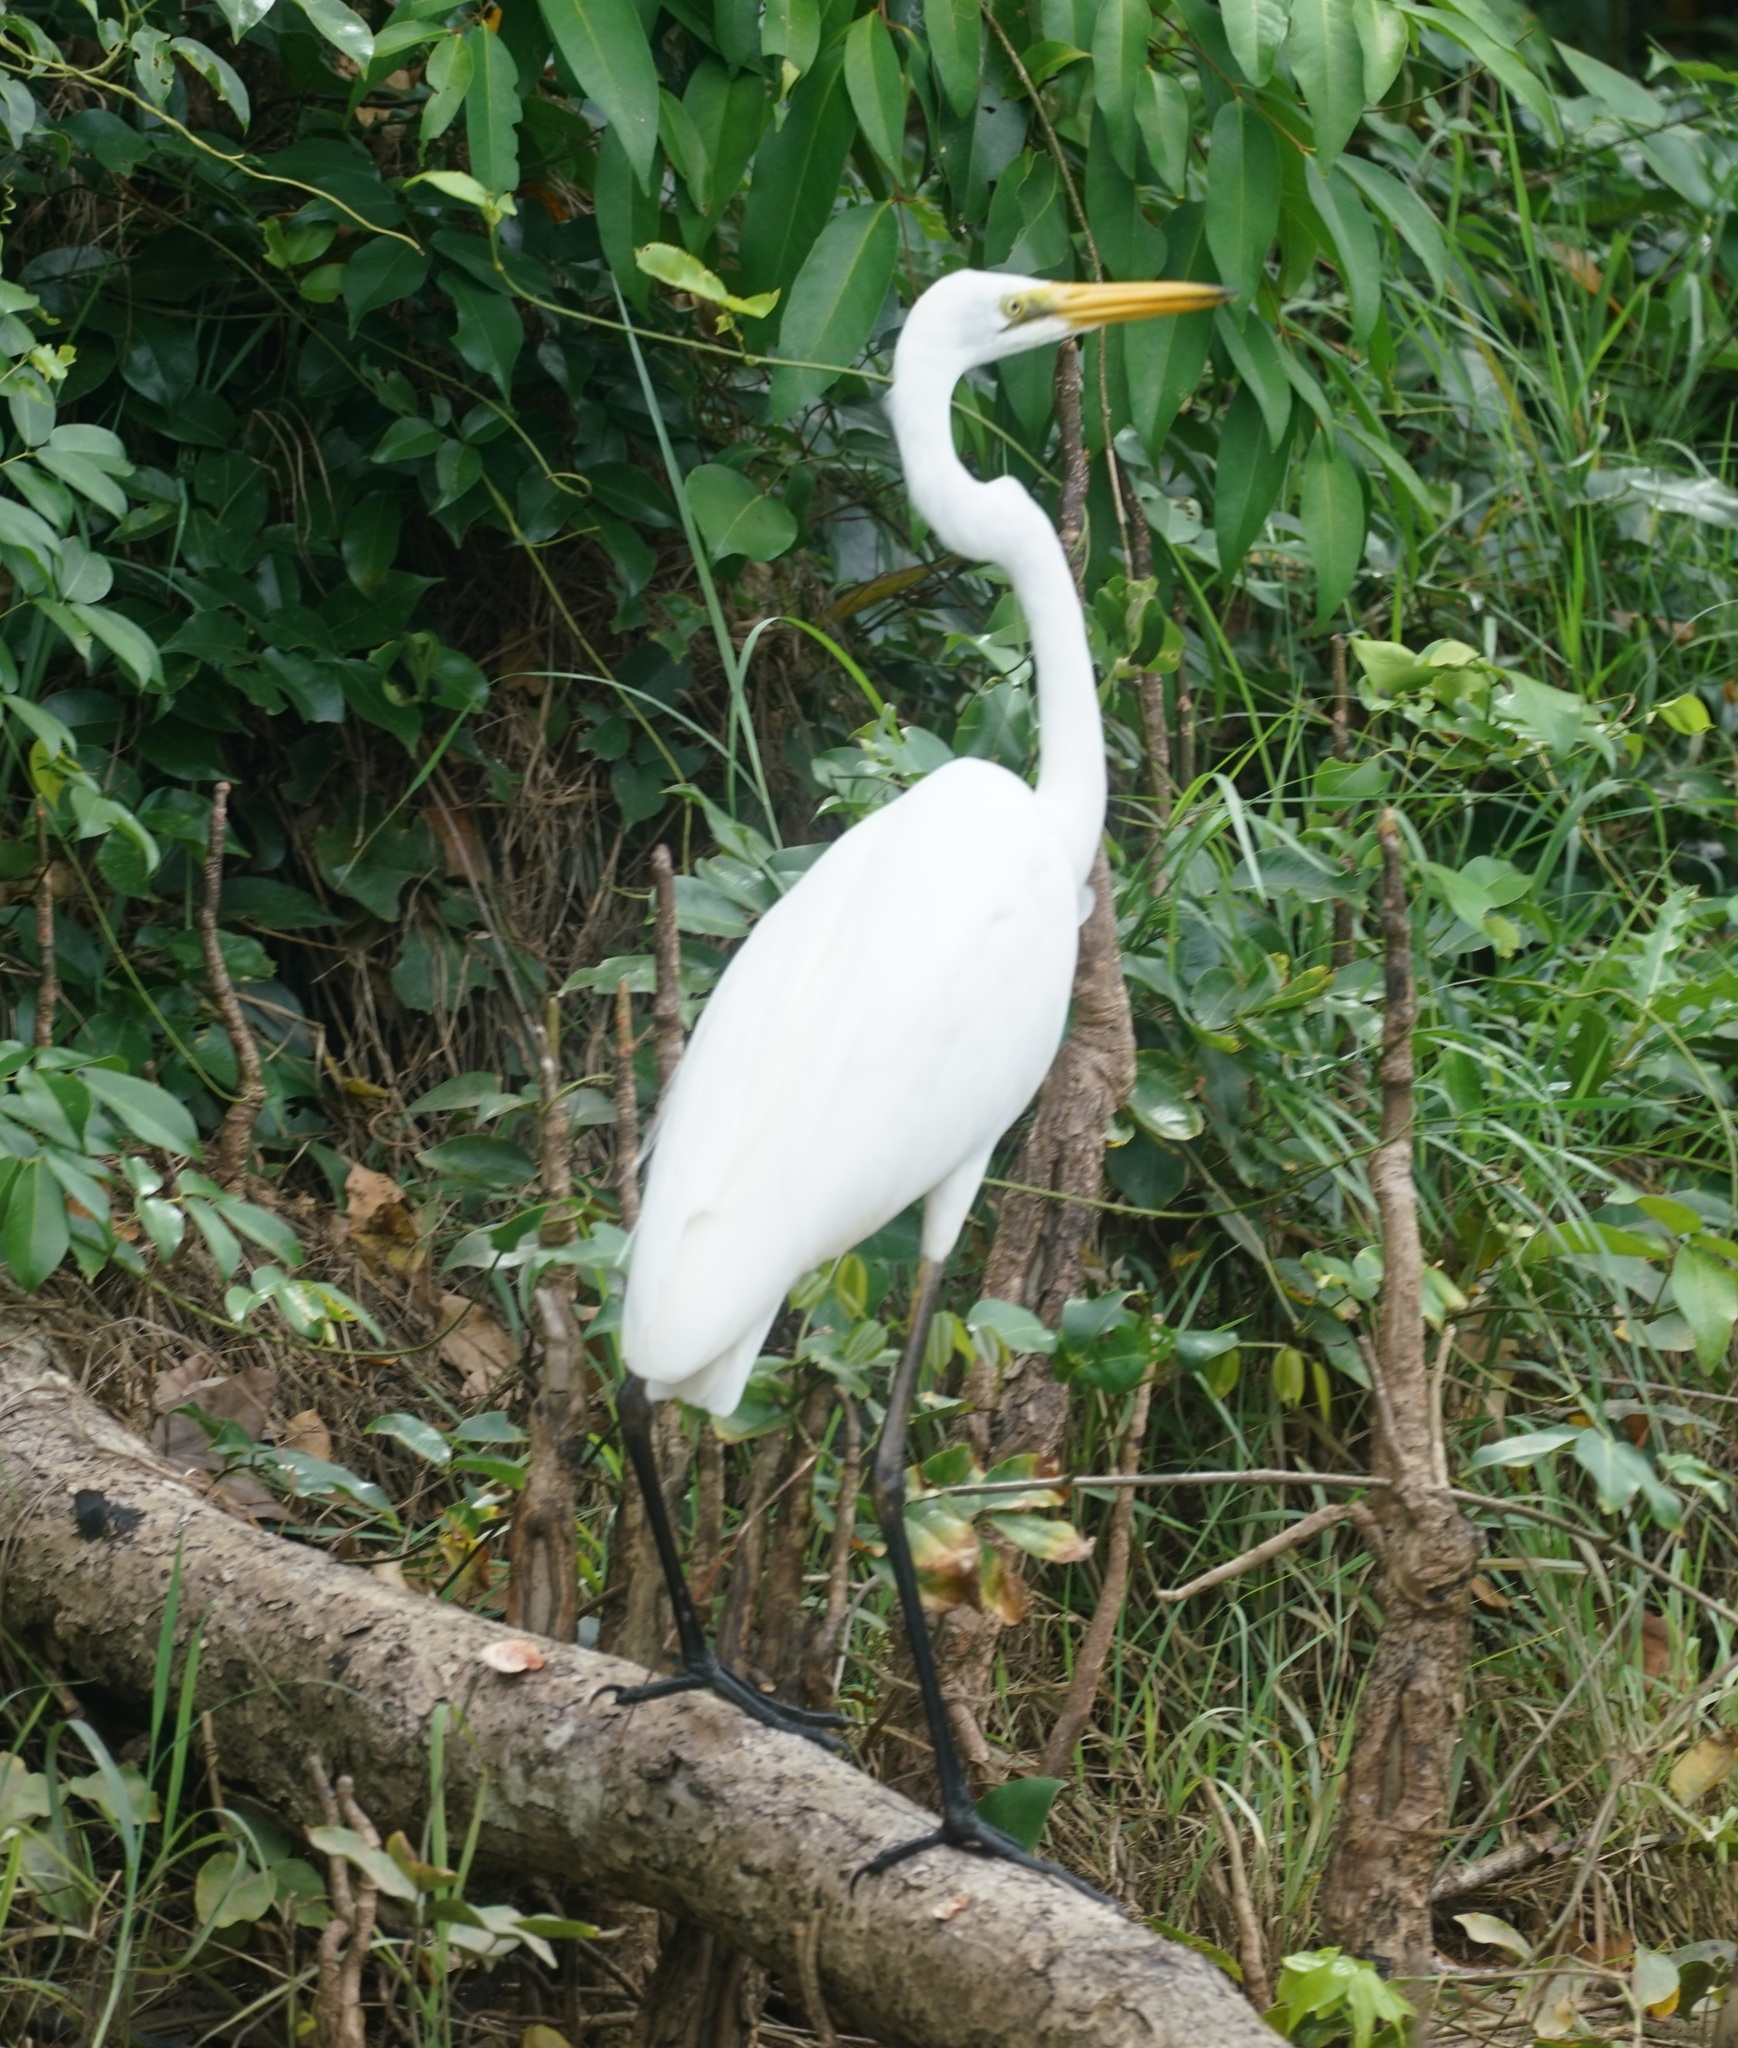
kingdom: Animalia
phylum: Chordata
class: Aves
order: Pelecaniformes
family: Ardeidae
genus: Ardea
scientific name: Ardea modesta
